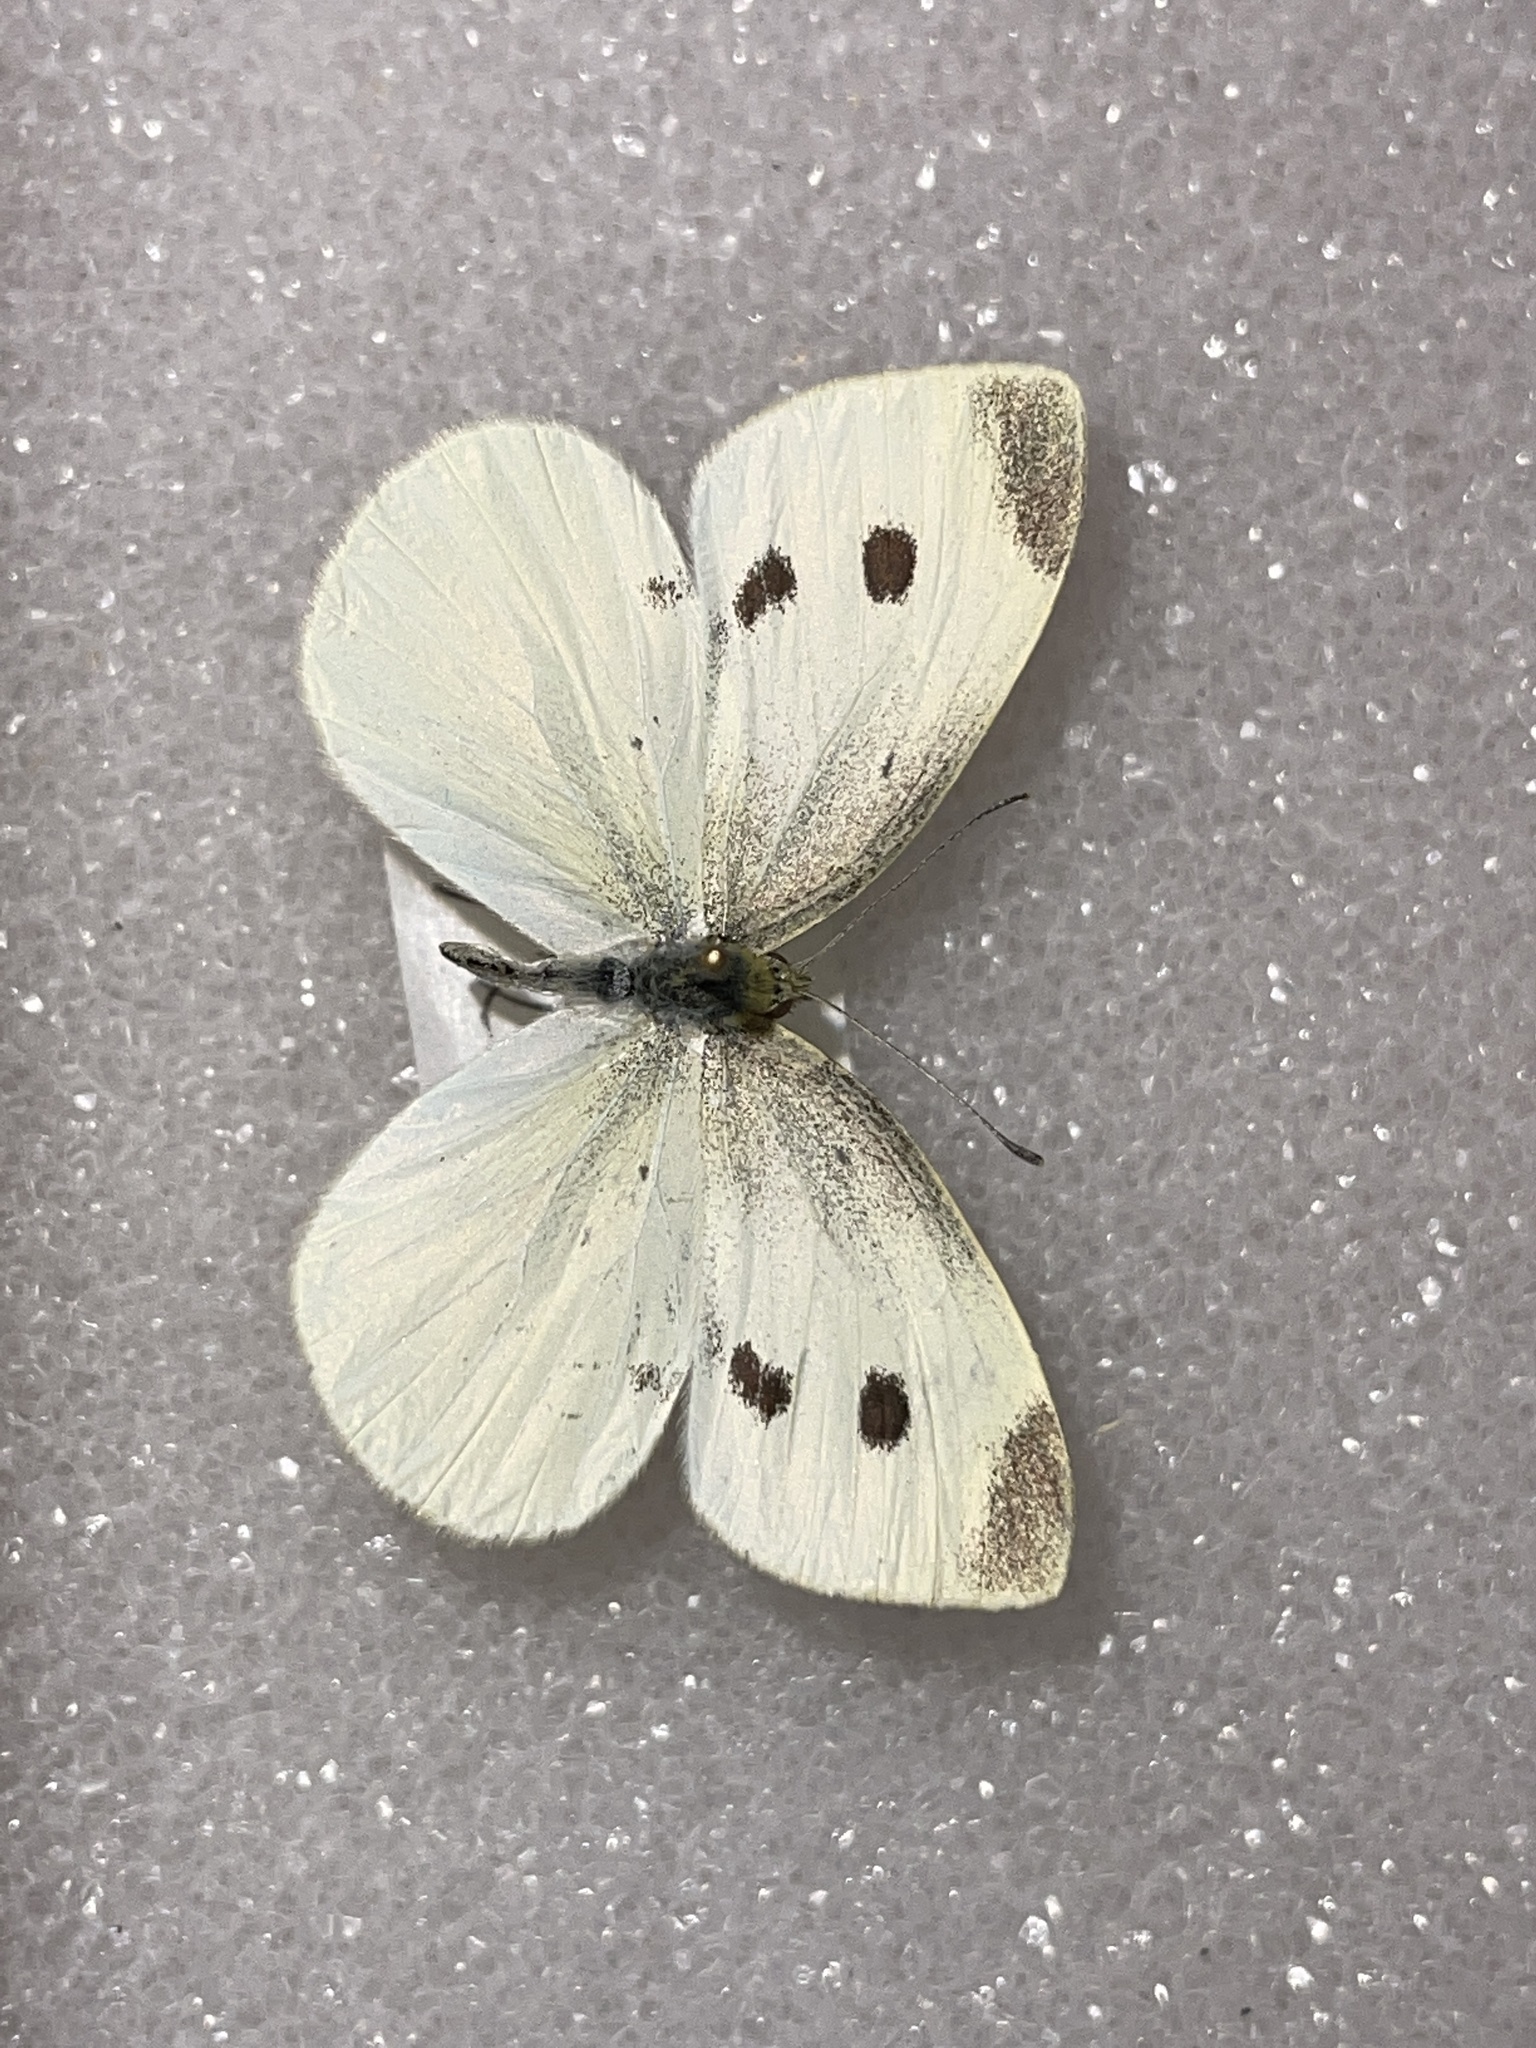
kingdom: Animalia
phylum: Arthropoda
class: Insecta
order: Lepidoptera
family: Pieridae
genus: Pieris
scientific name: Pieris rapae
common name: Small white
